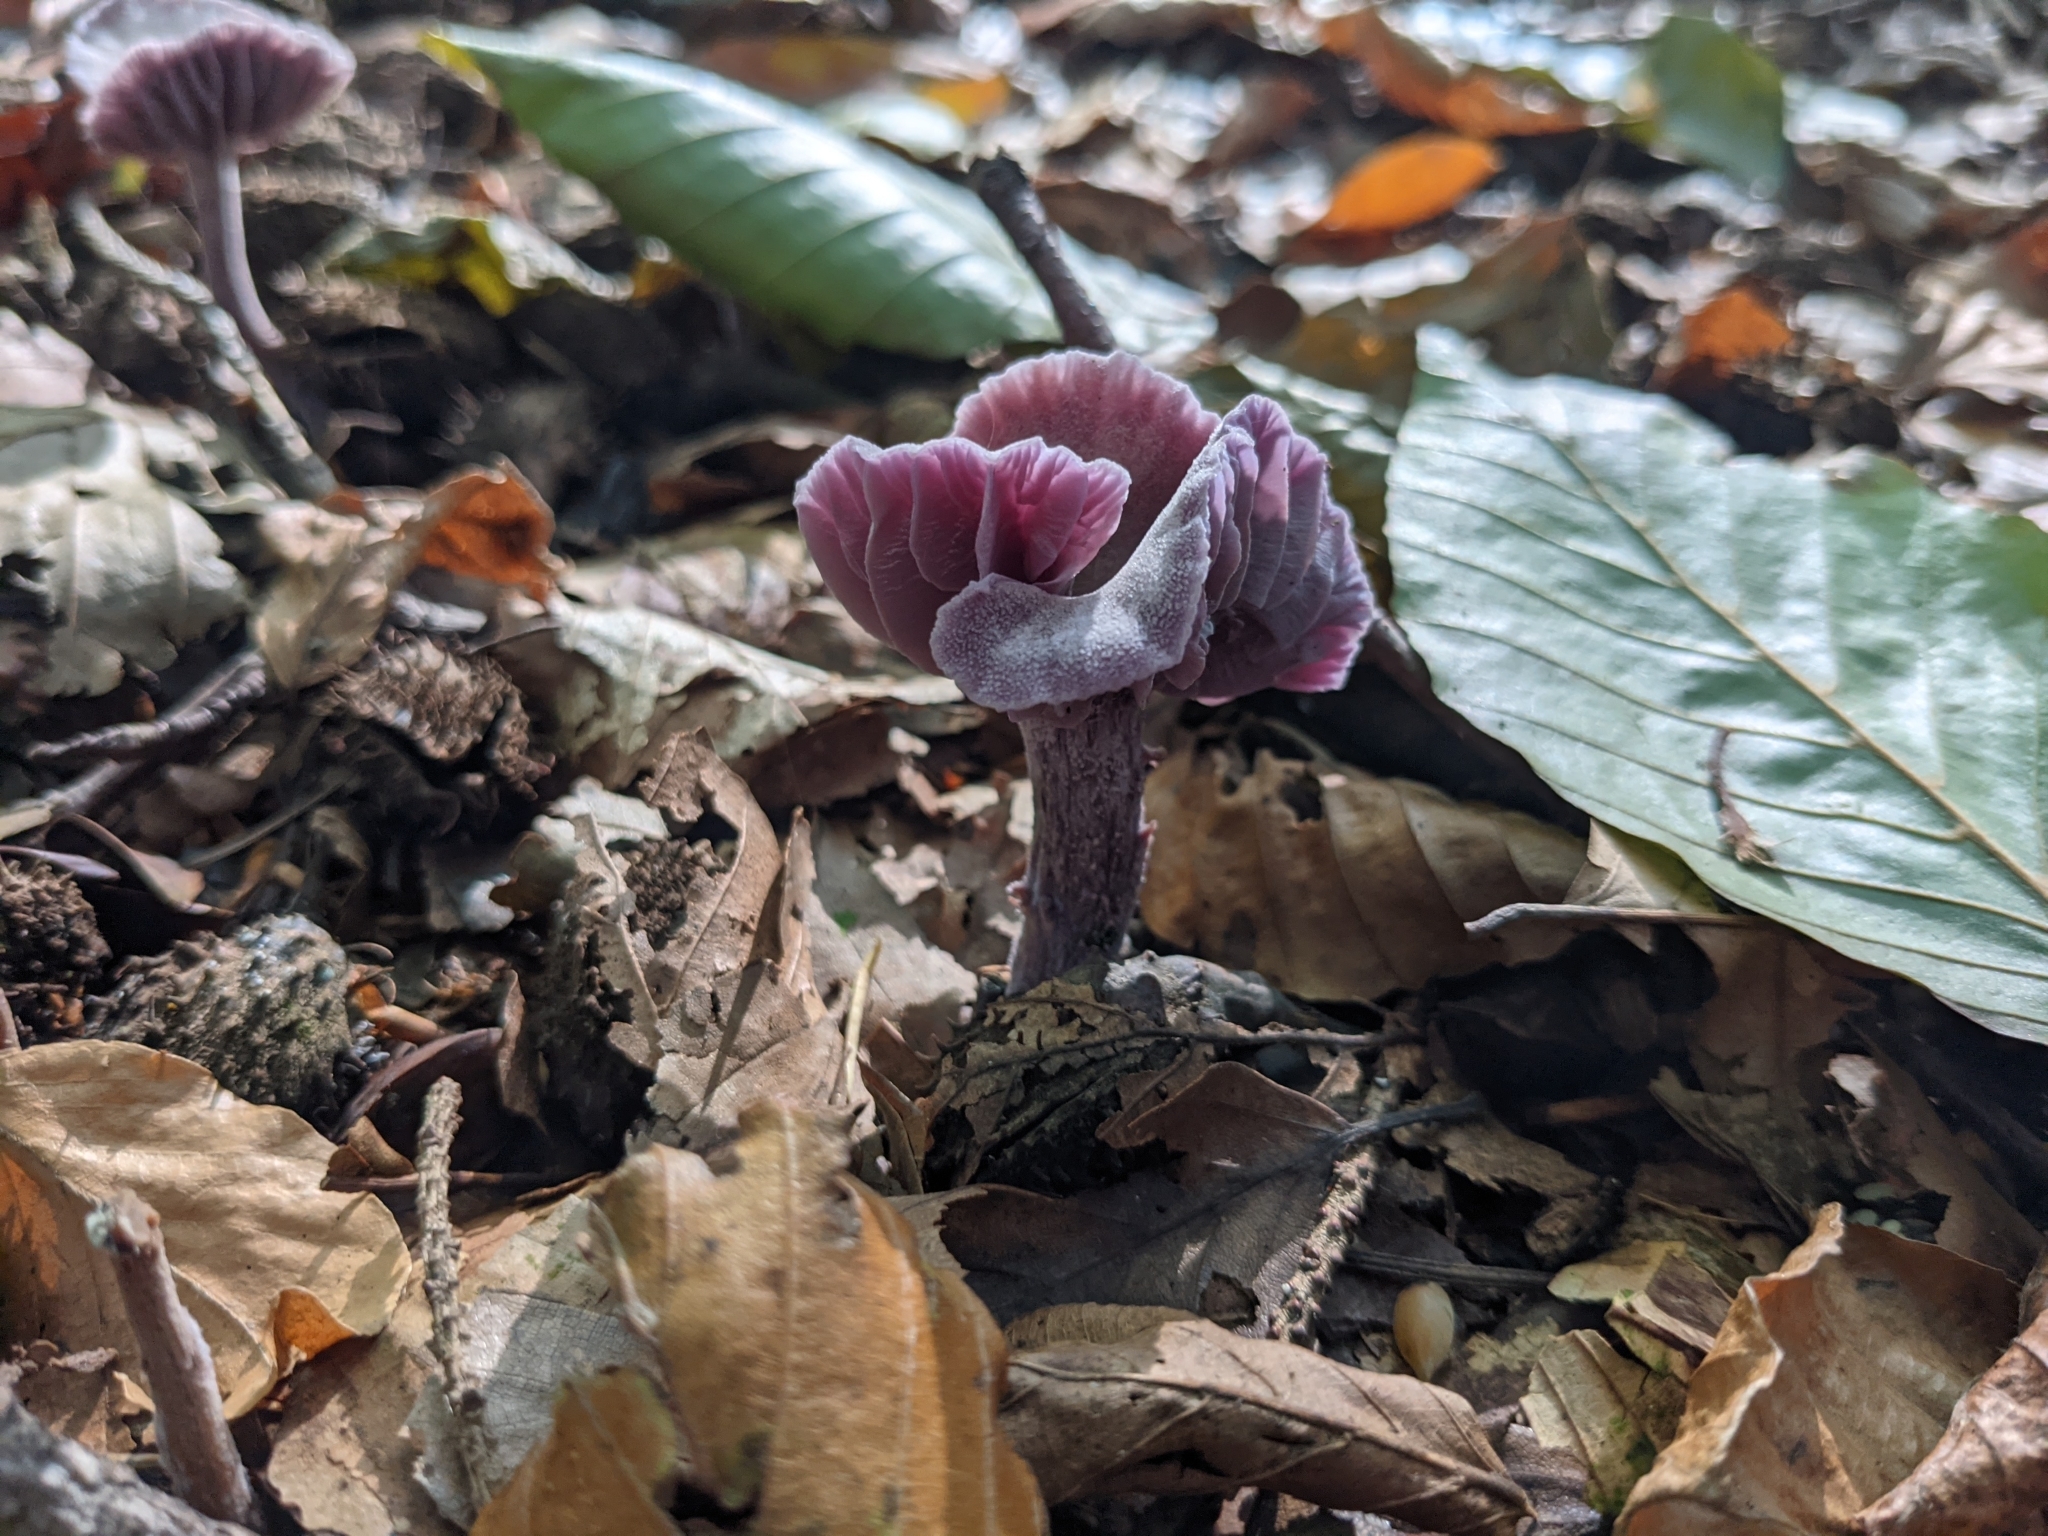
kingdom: Fungi
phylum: Basidiomycota
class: Agaricomycetes
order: Agaricales
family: Hydnangiaceae
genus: Laccaria
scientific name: Laccaria amethystina
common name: Amethyst deceiver
